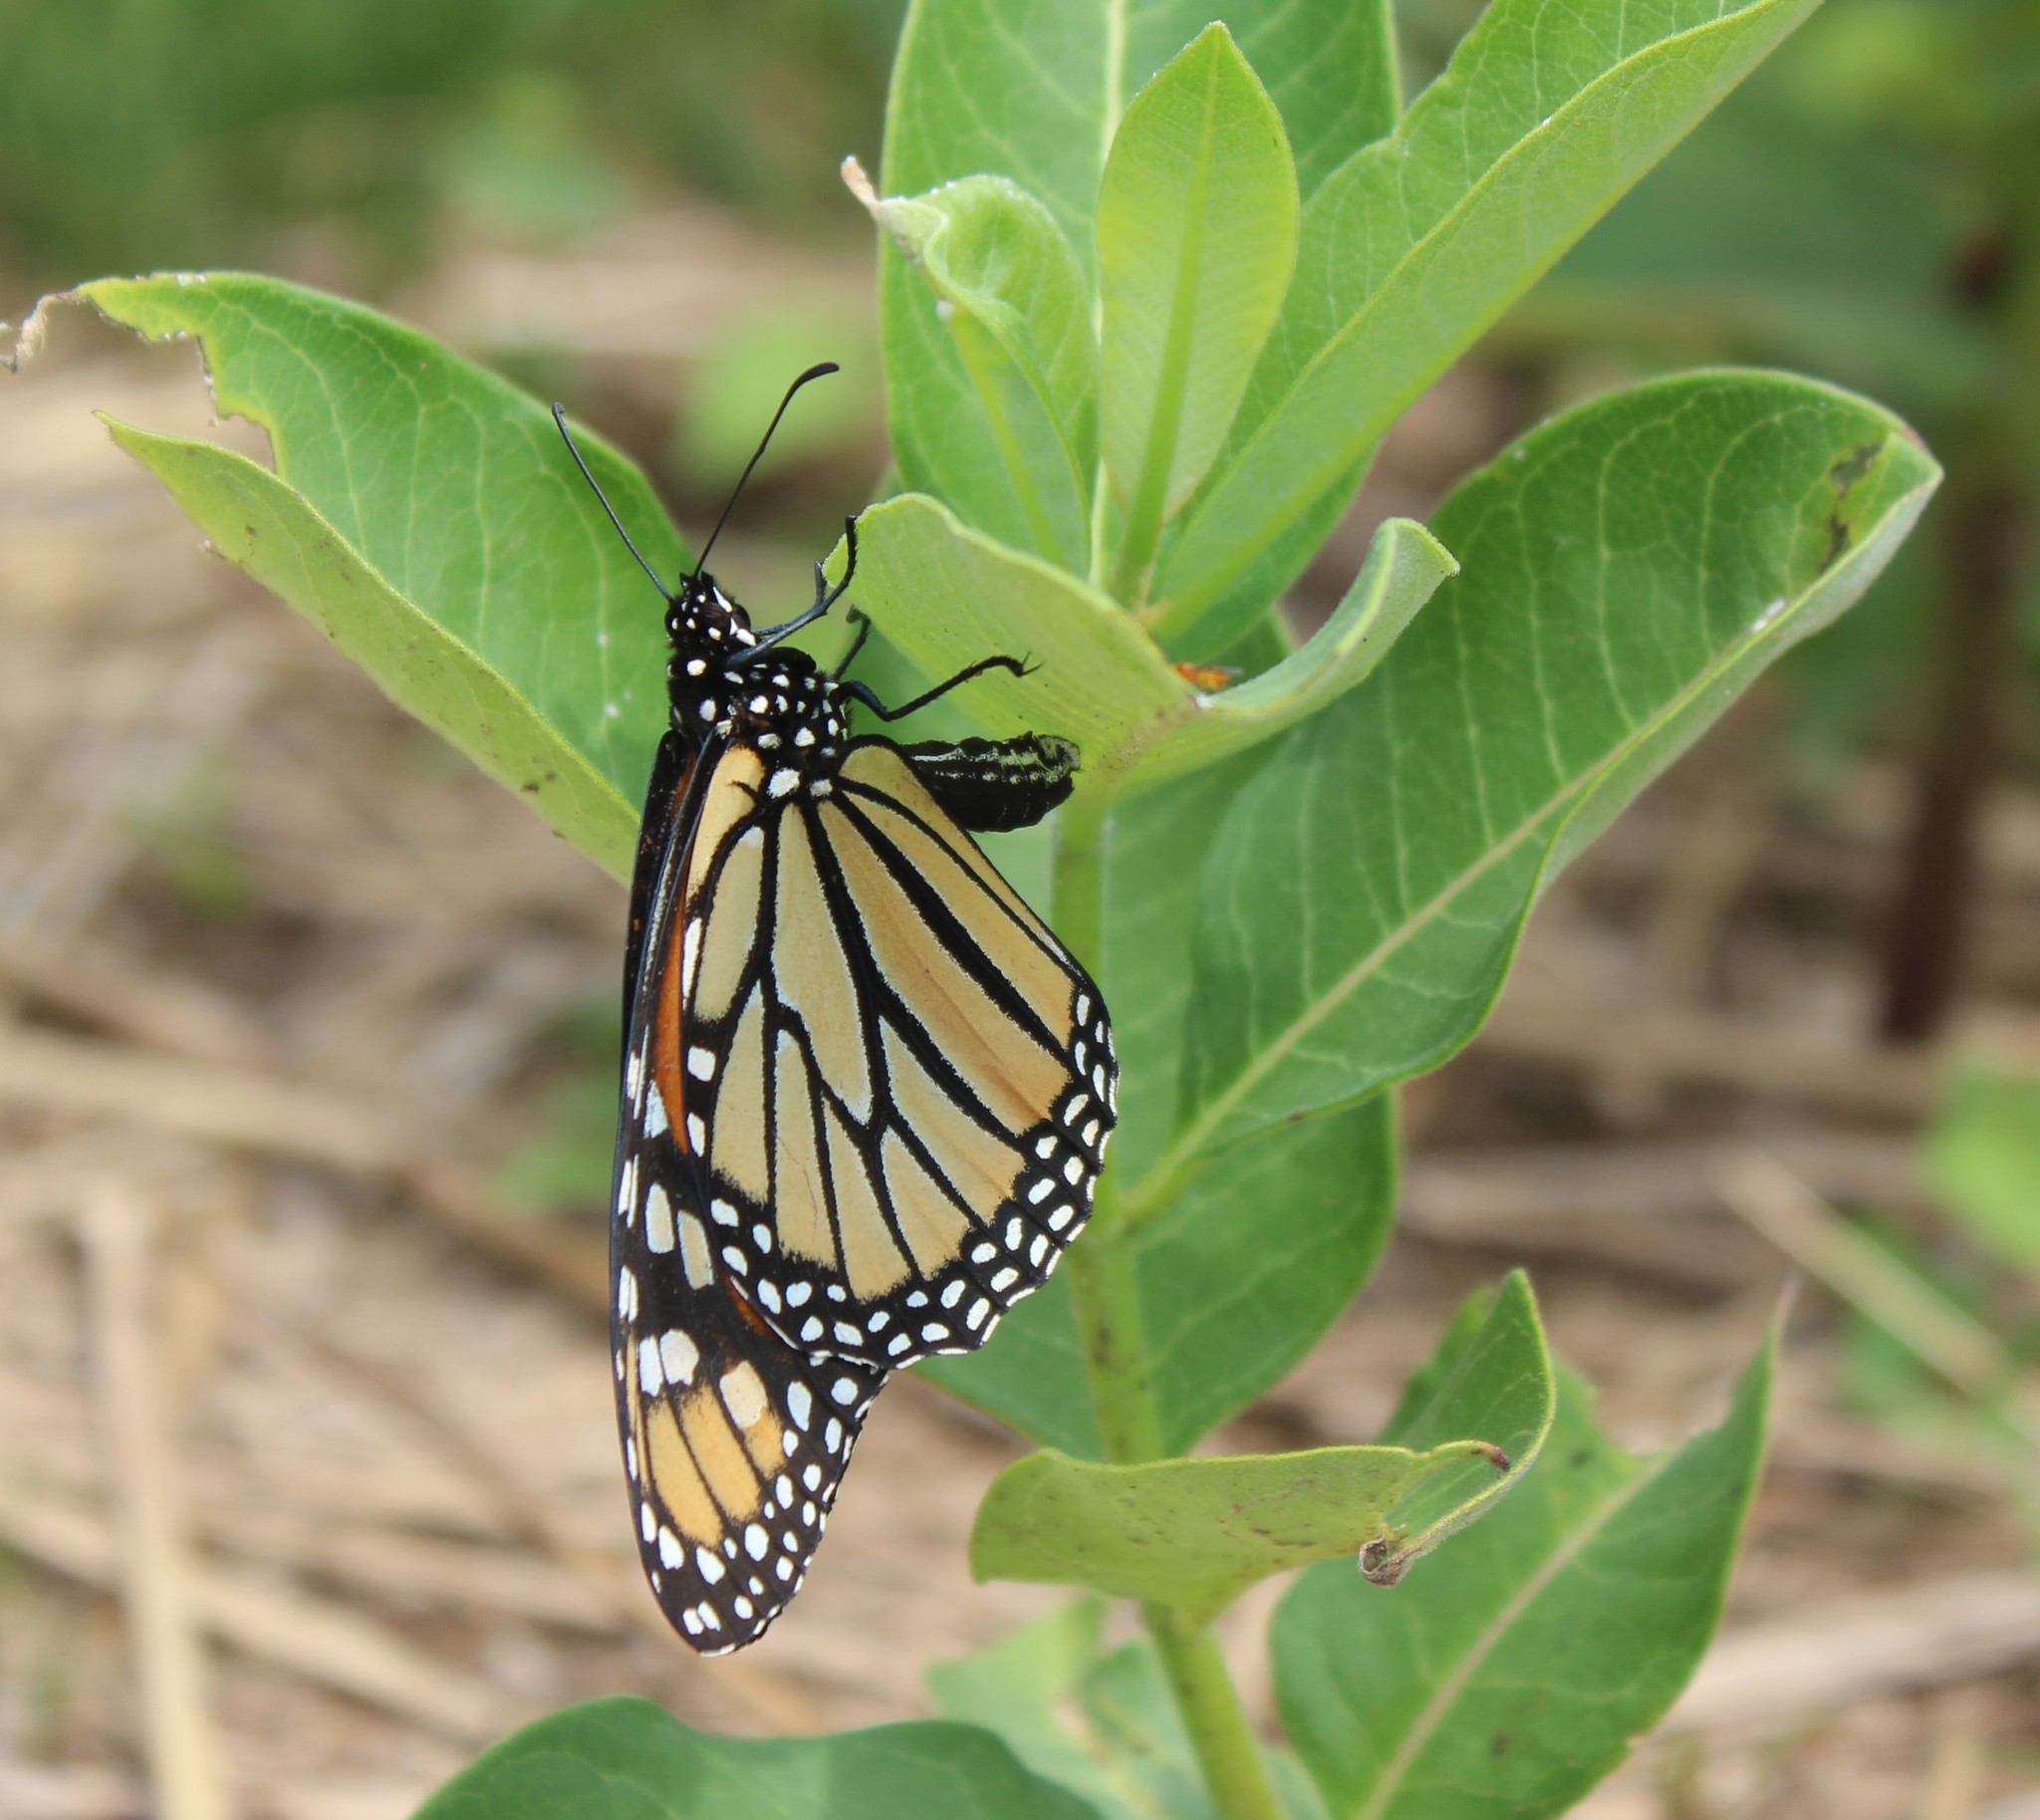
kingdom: Animalia
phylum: Arthropoda
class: Insecta
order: Lepidoptera
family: Nymphalidae
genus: Danaus
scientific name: Danaus plexippus
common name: Monarch
